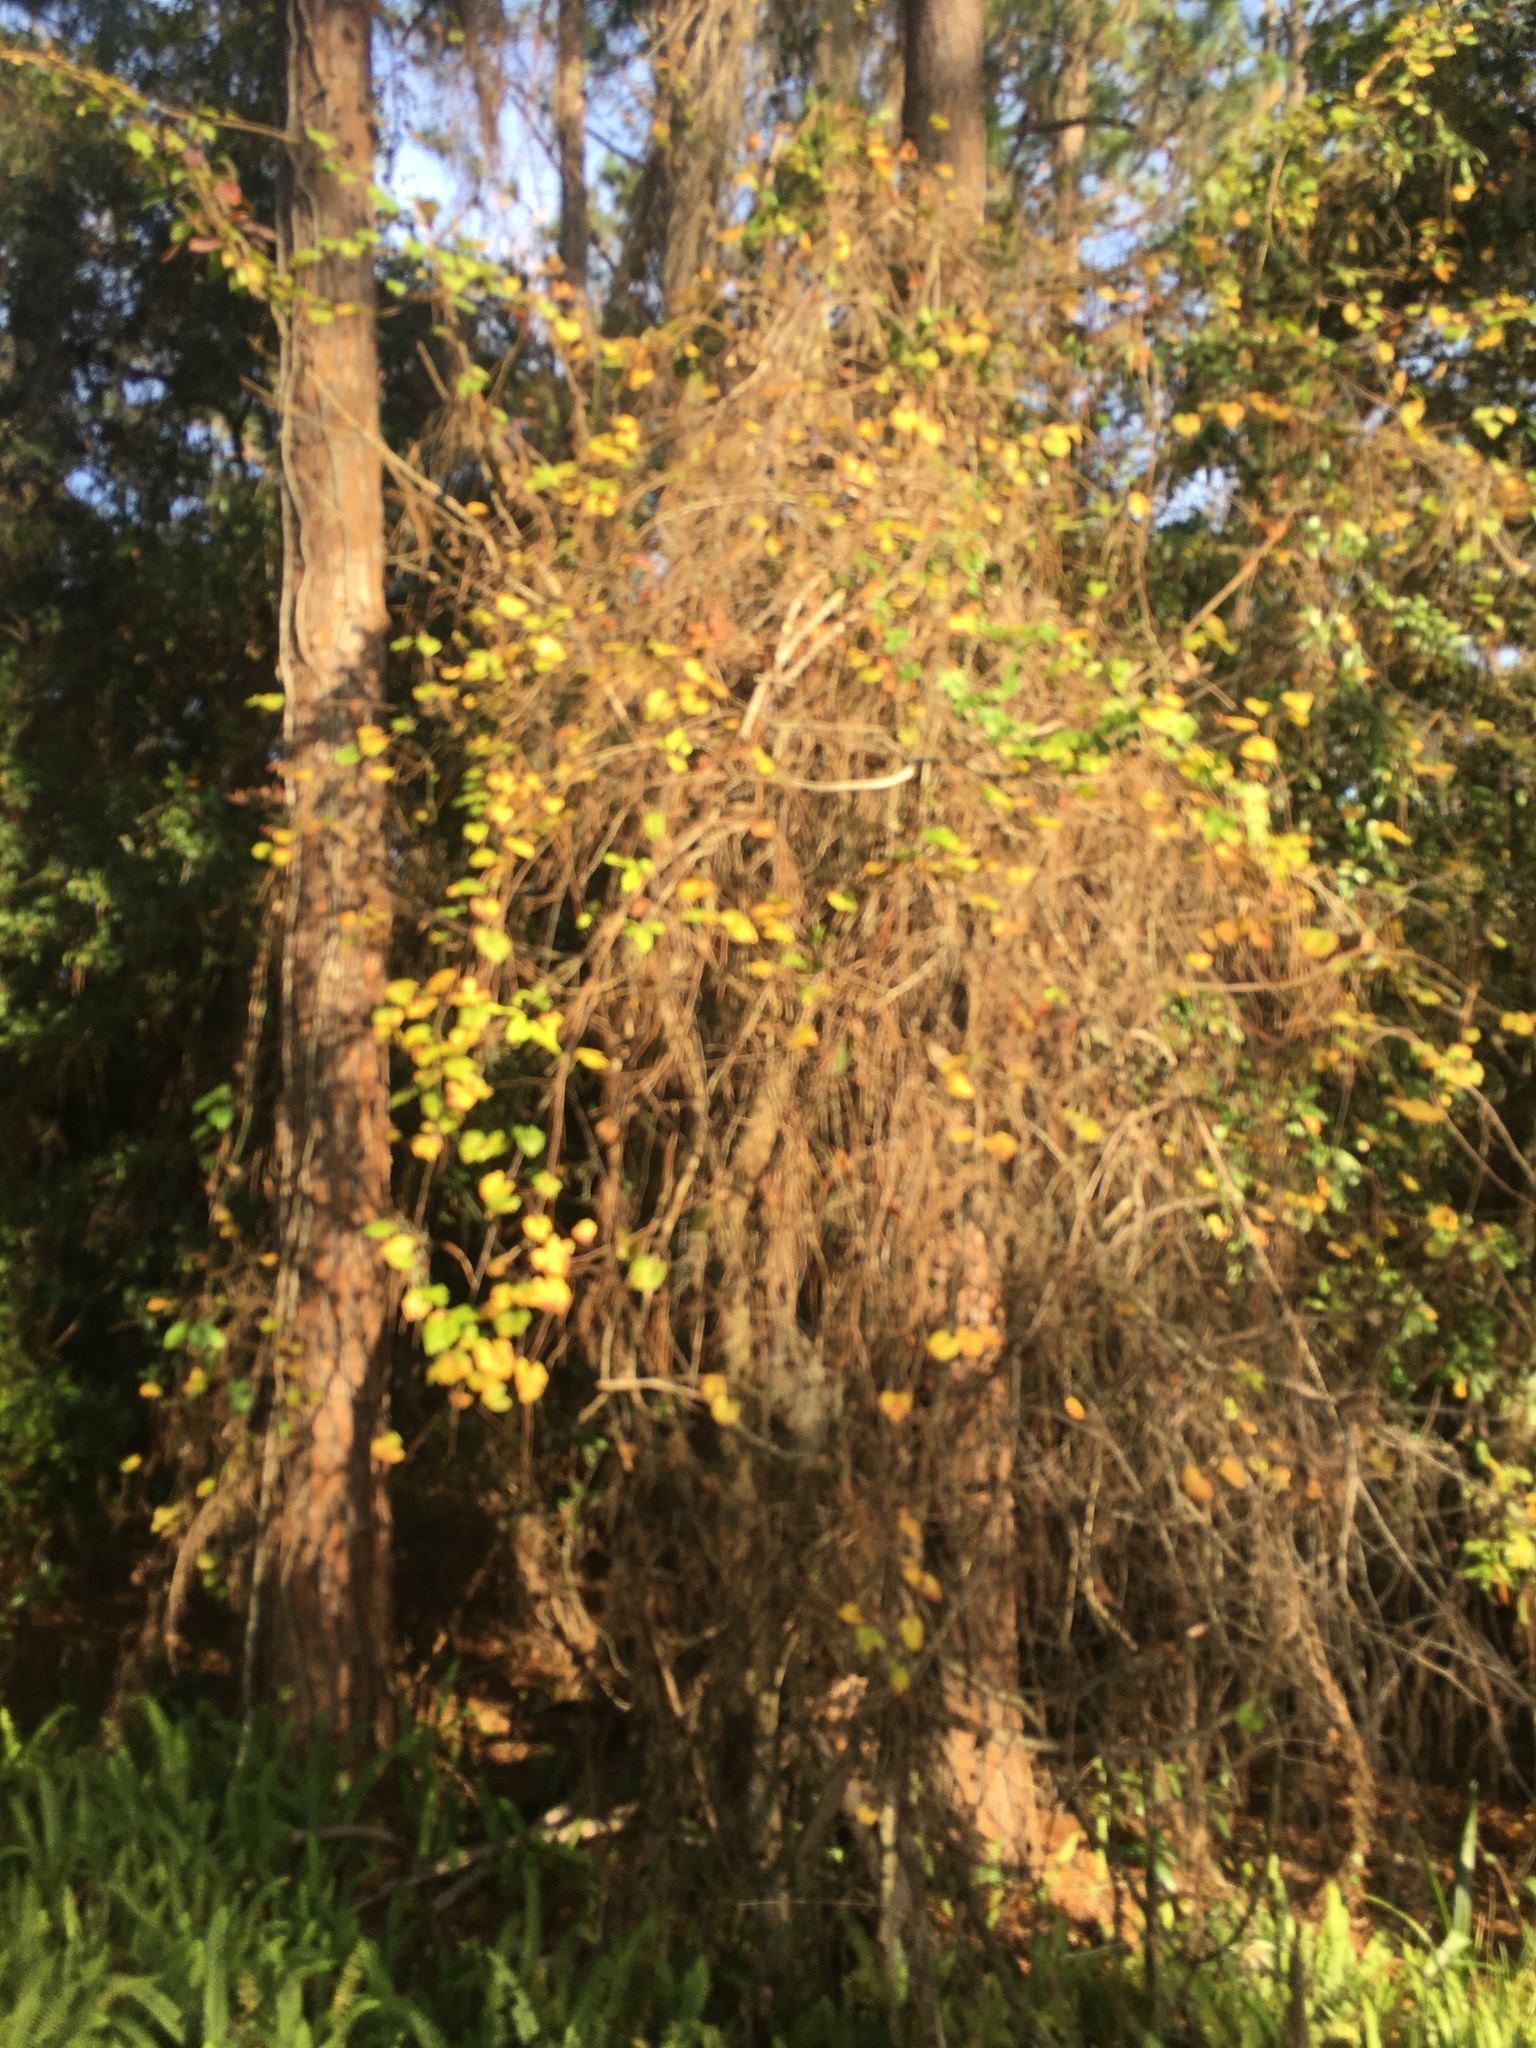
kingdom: Plantae
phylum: Tracheophyta
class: Magnoliopsida
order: Vitales
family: Vitaceae
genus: Vitis
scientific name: Vitis rotundifolia
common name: Muscadine grape
